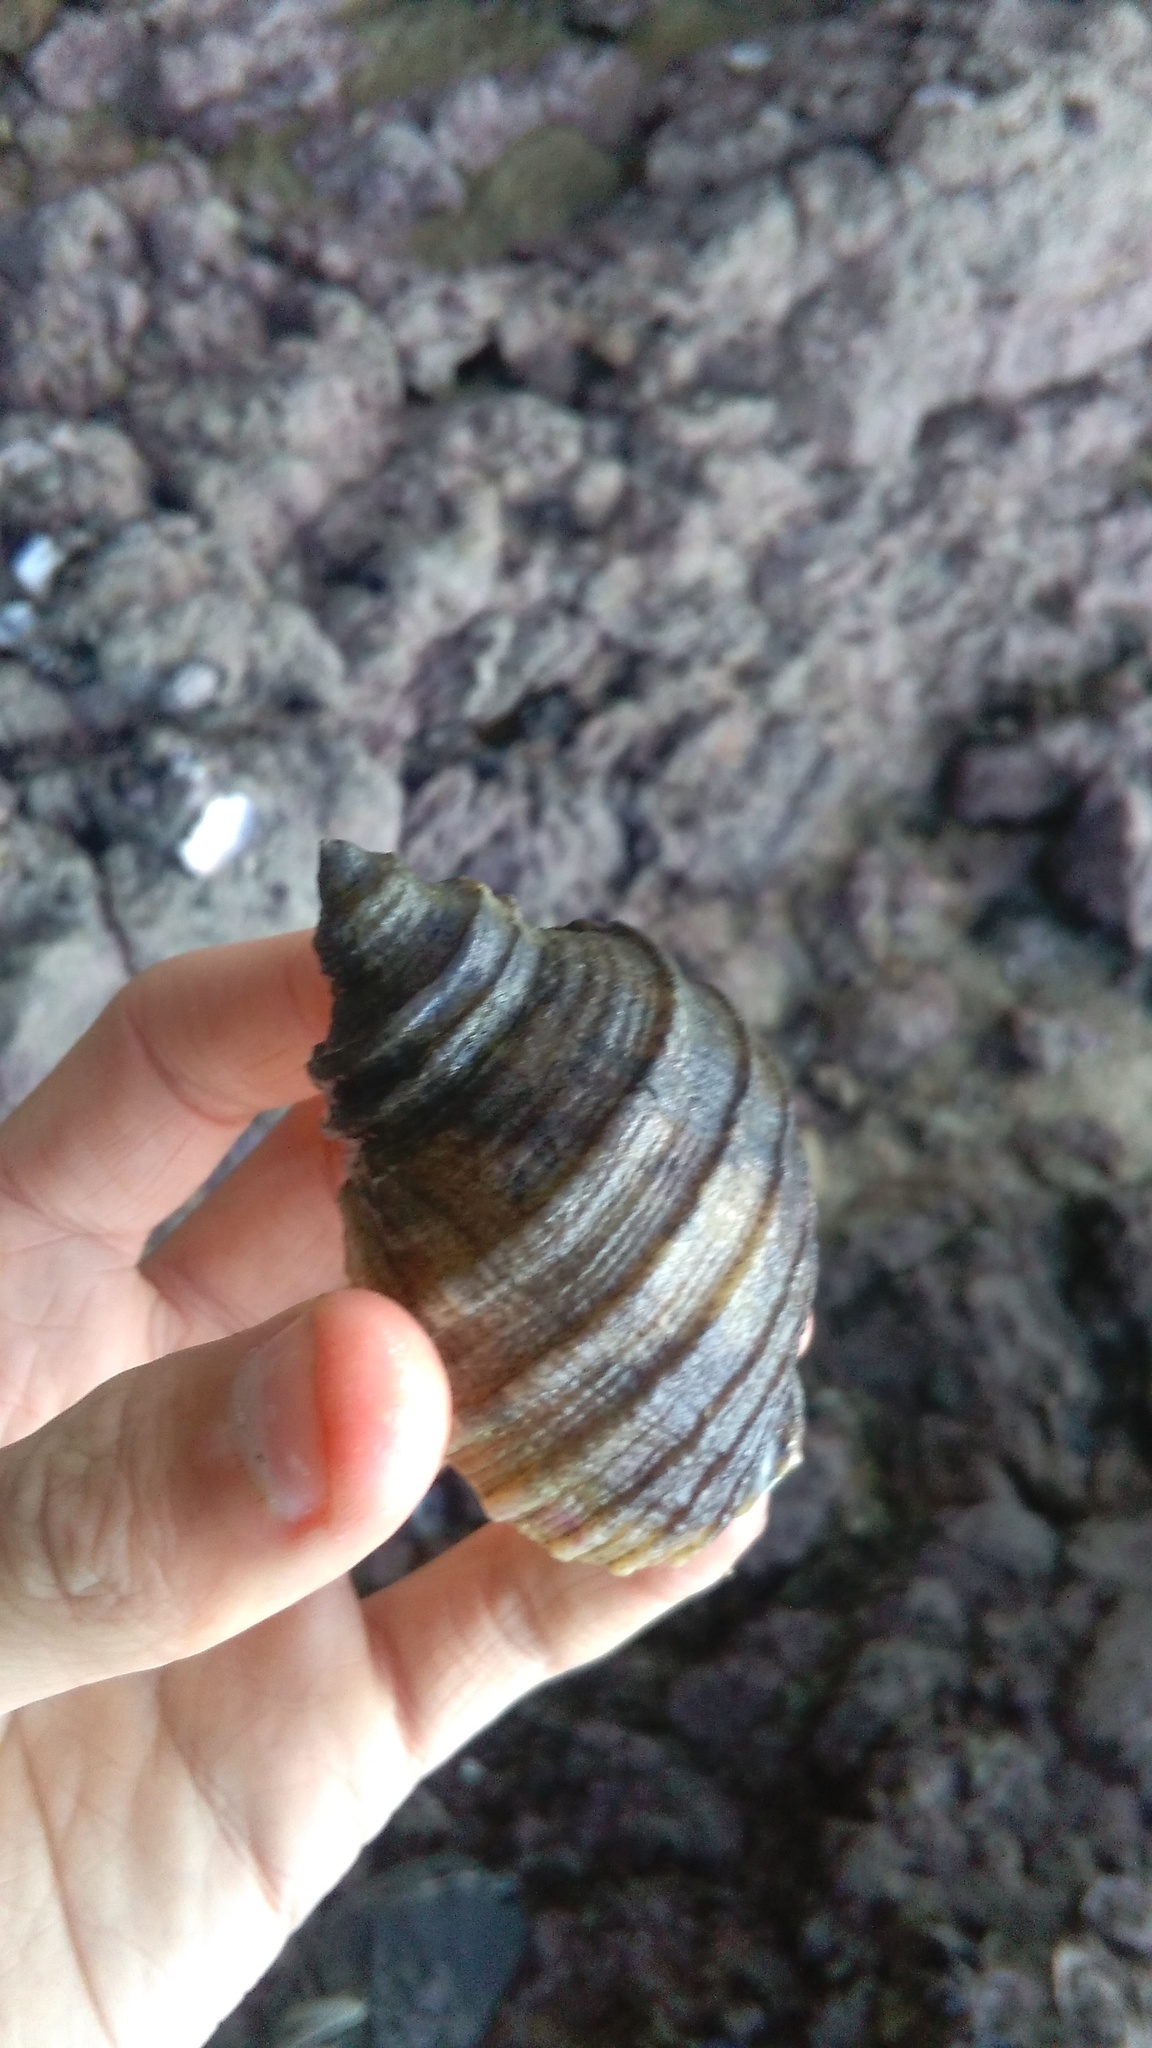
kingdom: Animalia
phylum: Mollusca
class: Gastropoda
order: Neogastropoda
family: Muricidae
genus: Dicathais
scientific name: Dicathais orbita
